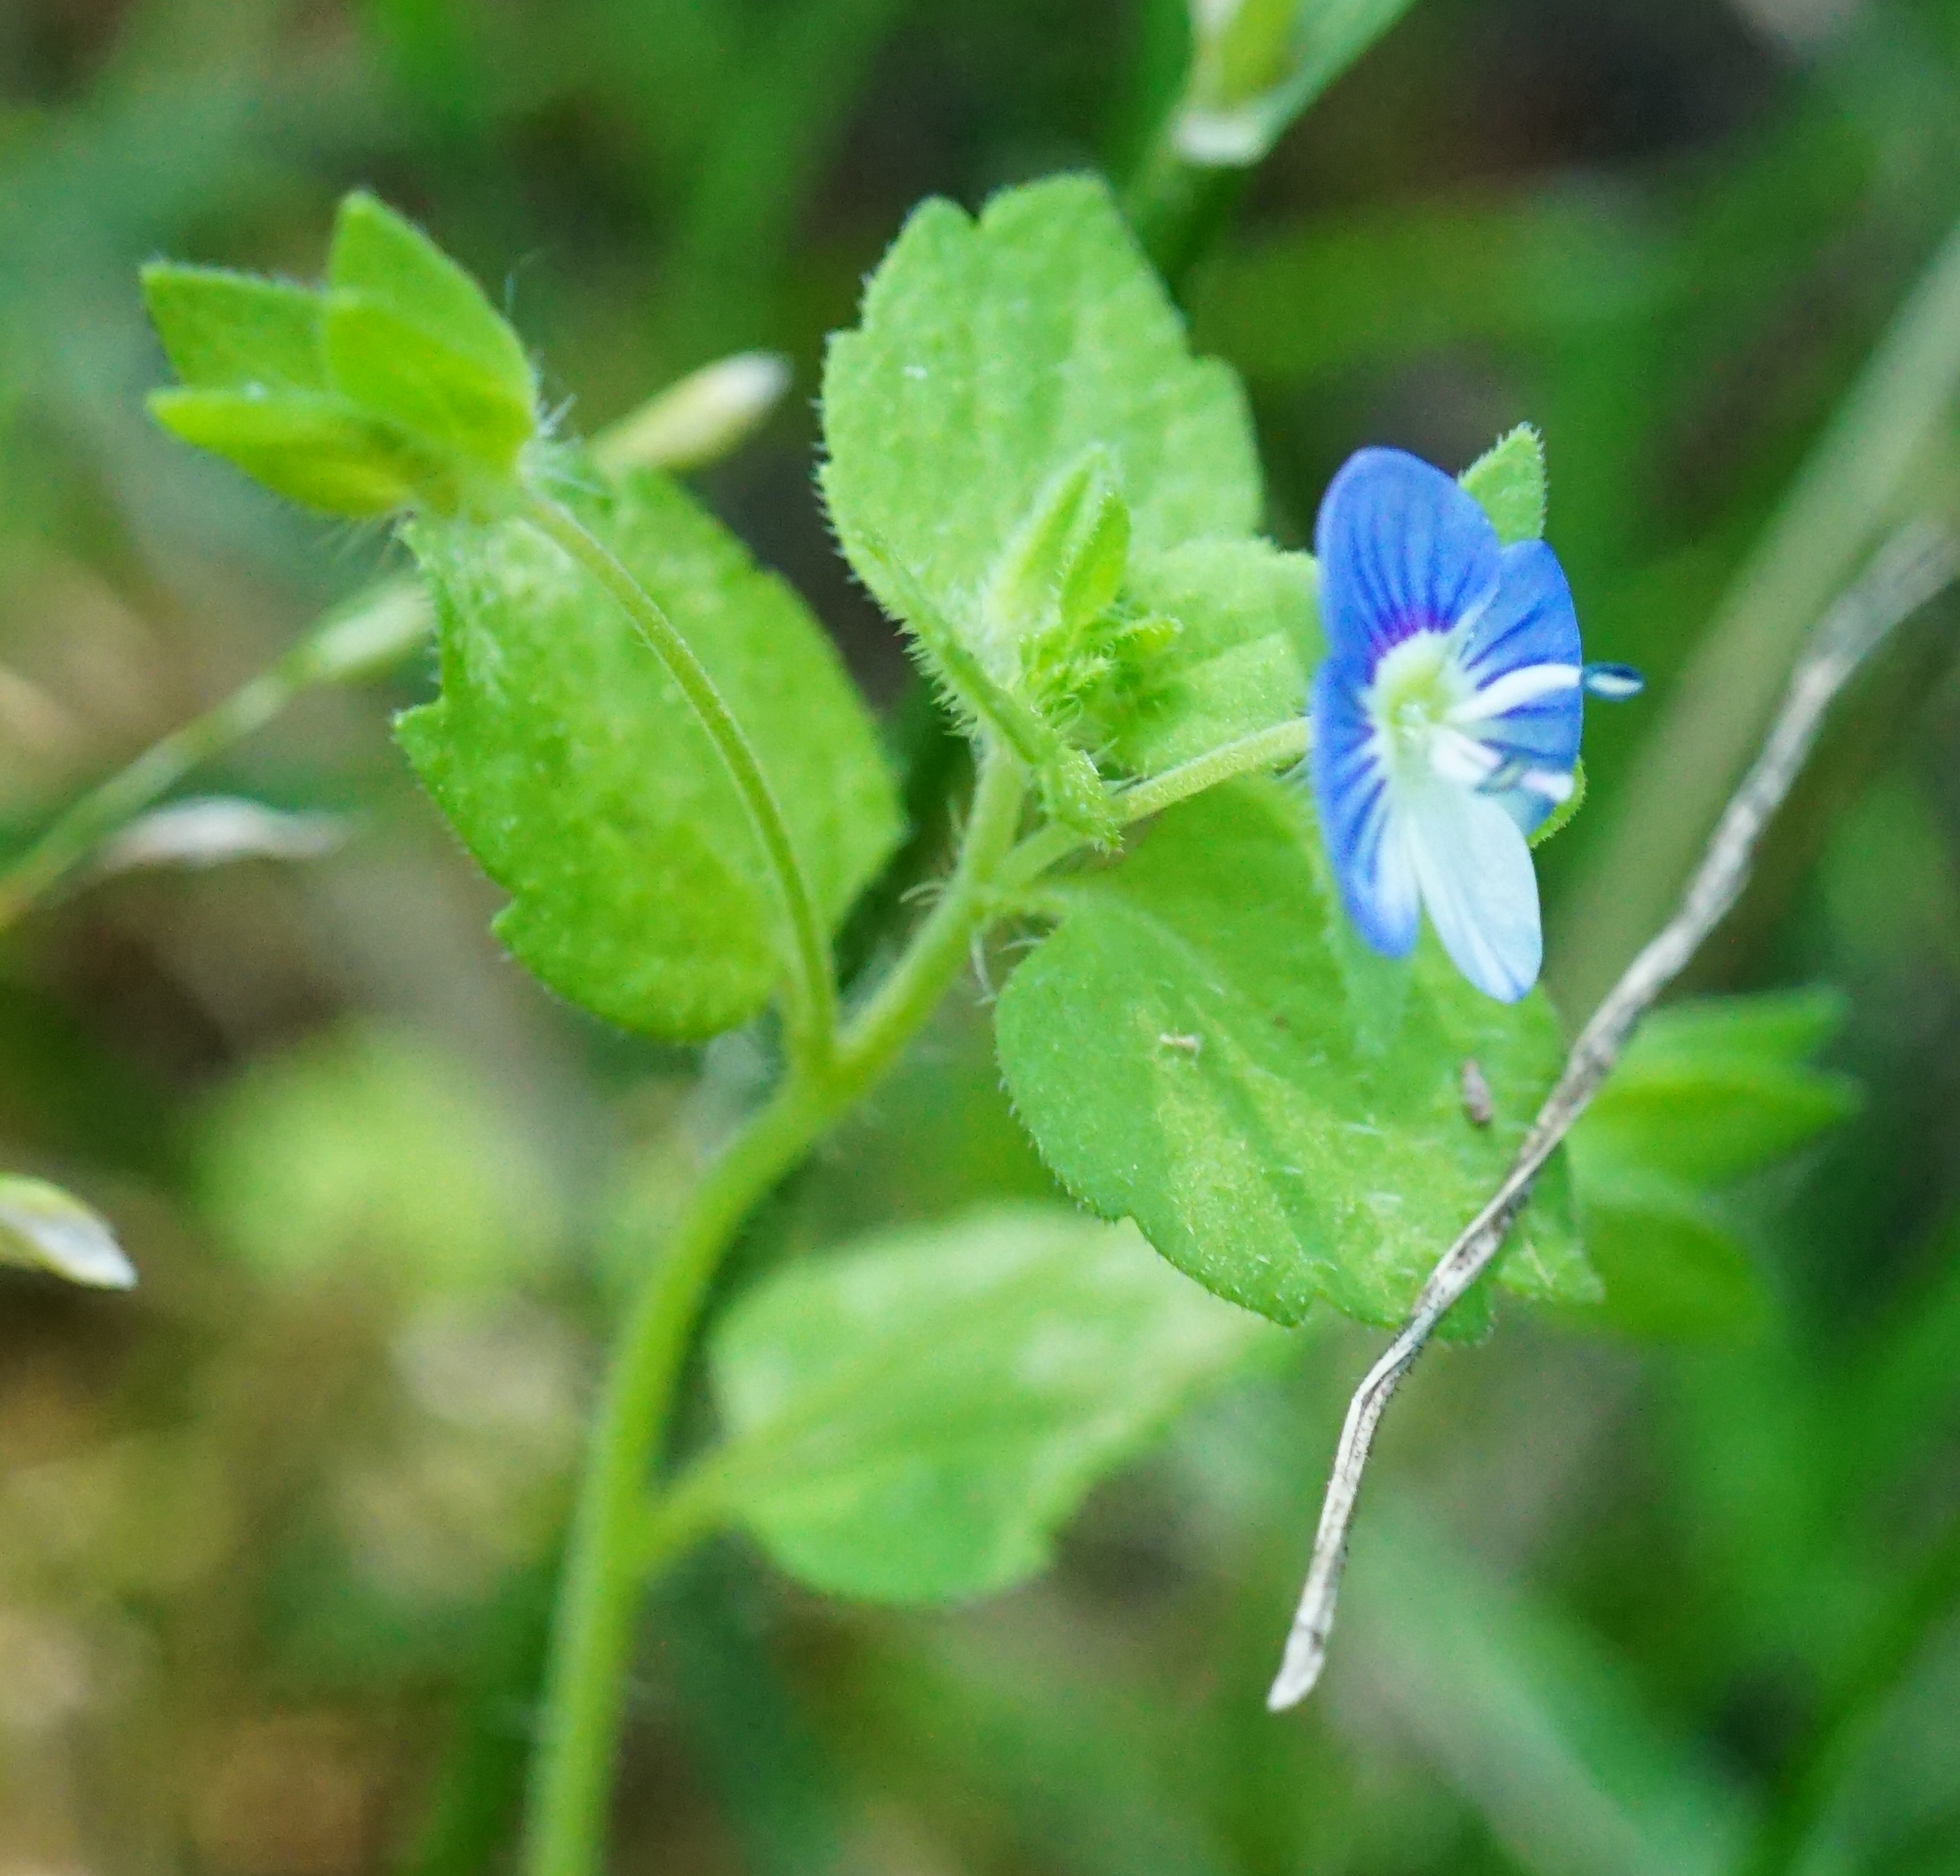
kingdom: Plantae
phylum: Tracheophyta
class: Magnoliopsida
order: Lamiales
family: Plantaginaceae
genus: Veronica
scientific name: Veronica persica
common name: Common field-speedwell
